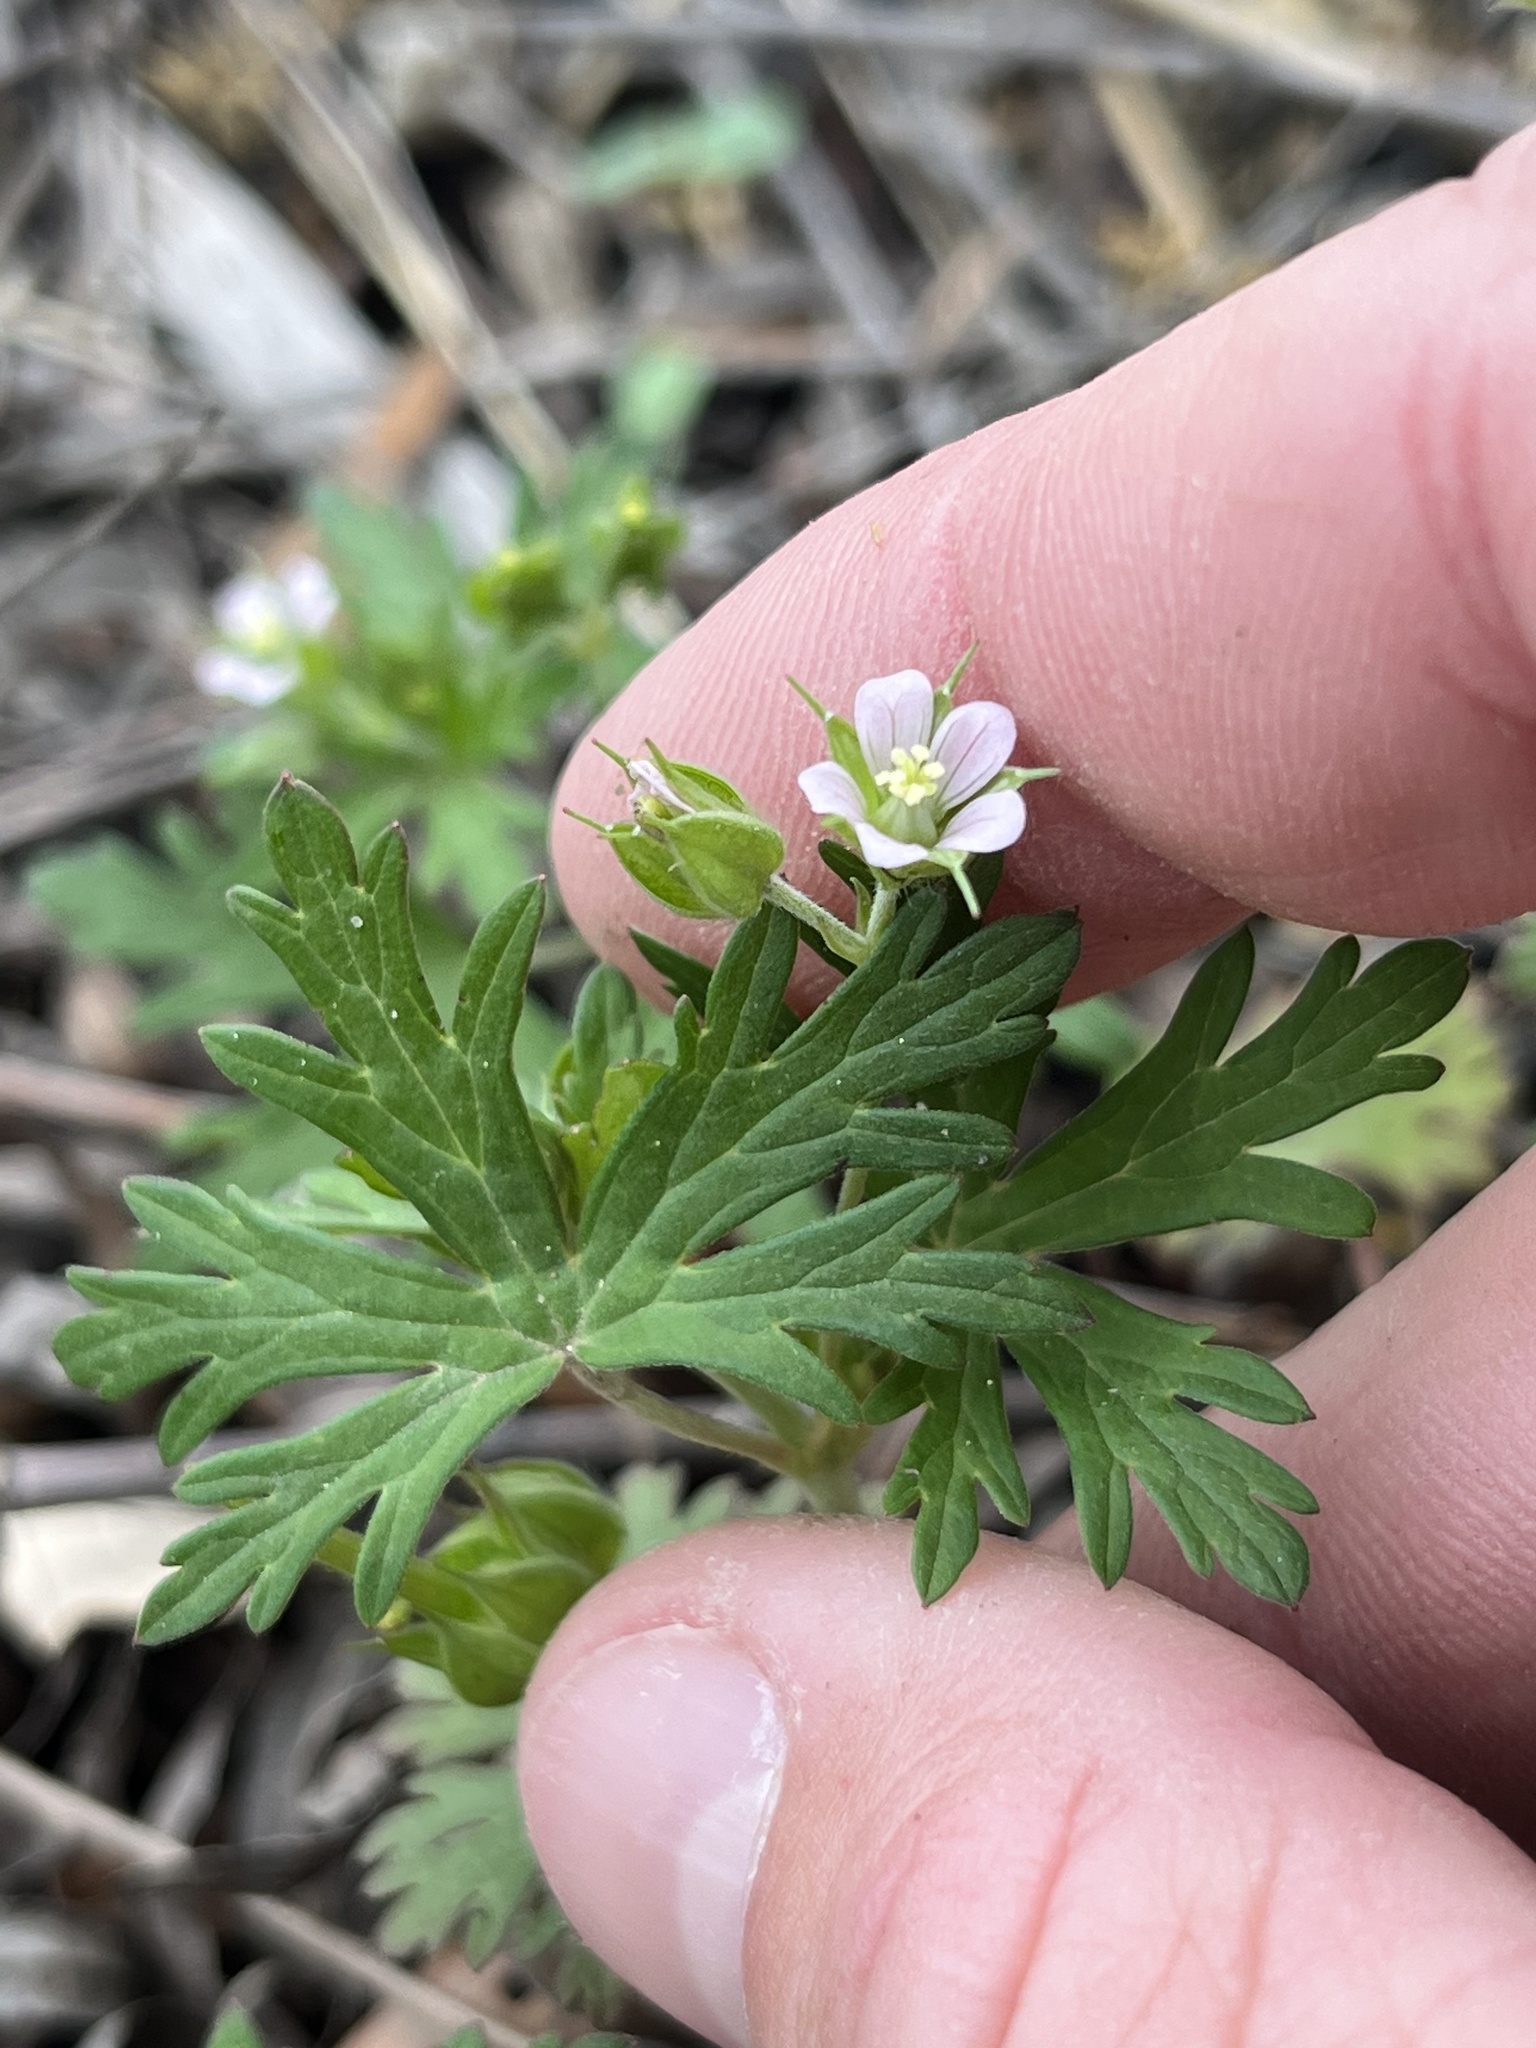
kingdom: Plantae
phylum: Tracheophyta
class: Magnoliopsida
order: Geraniales
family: Geraniaceae
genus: Geranium
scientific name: Geranium carolinianum
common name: Carolina crane's-bill
